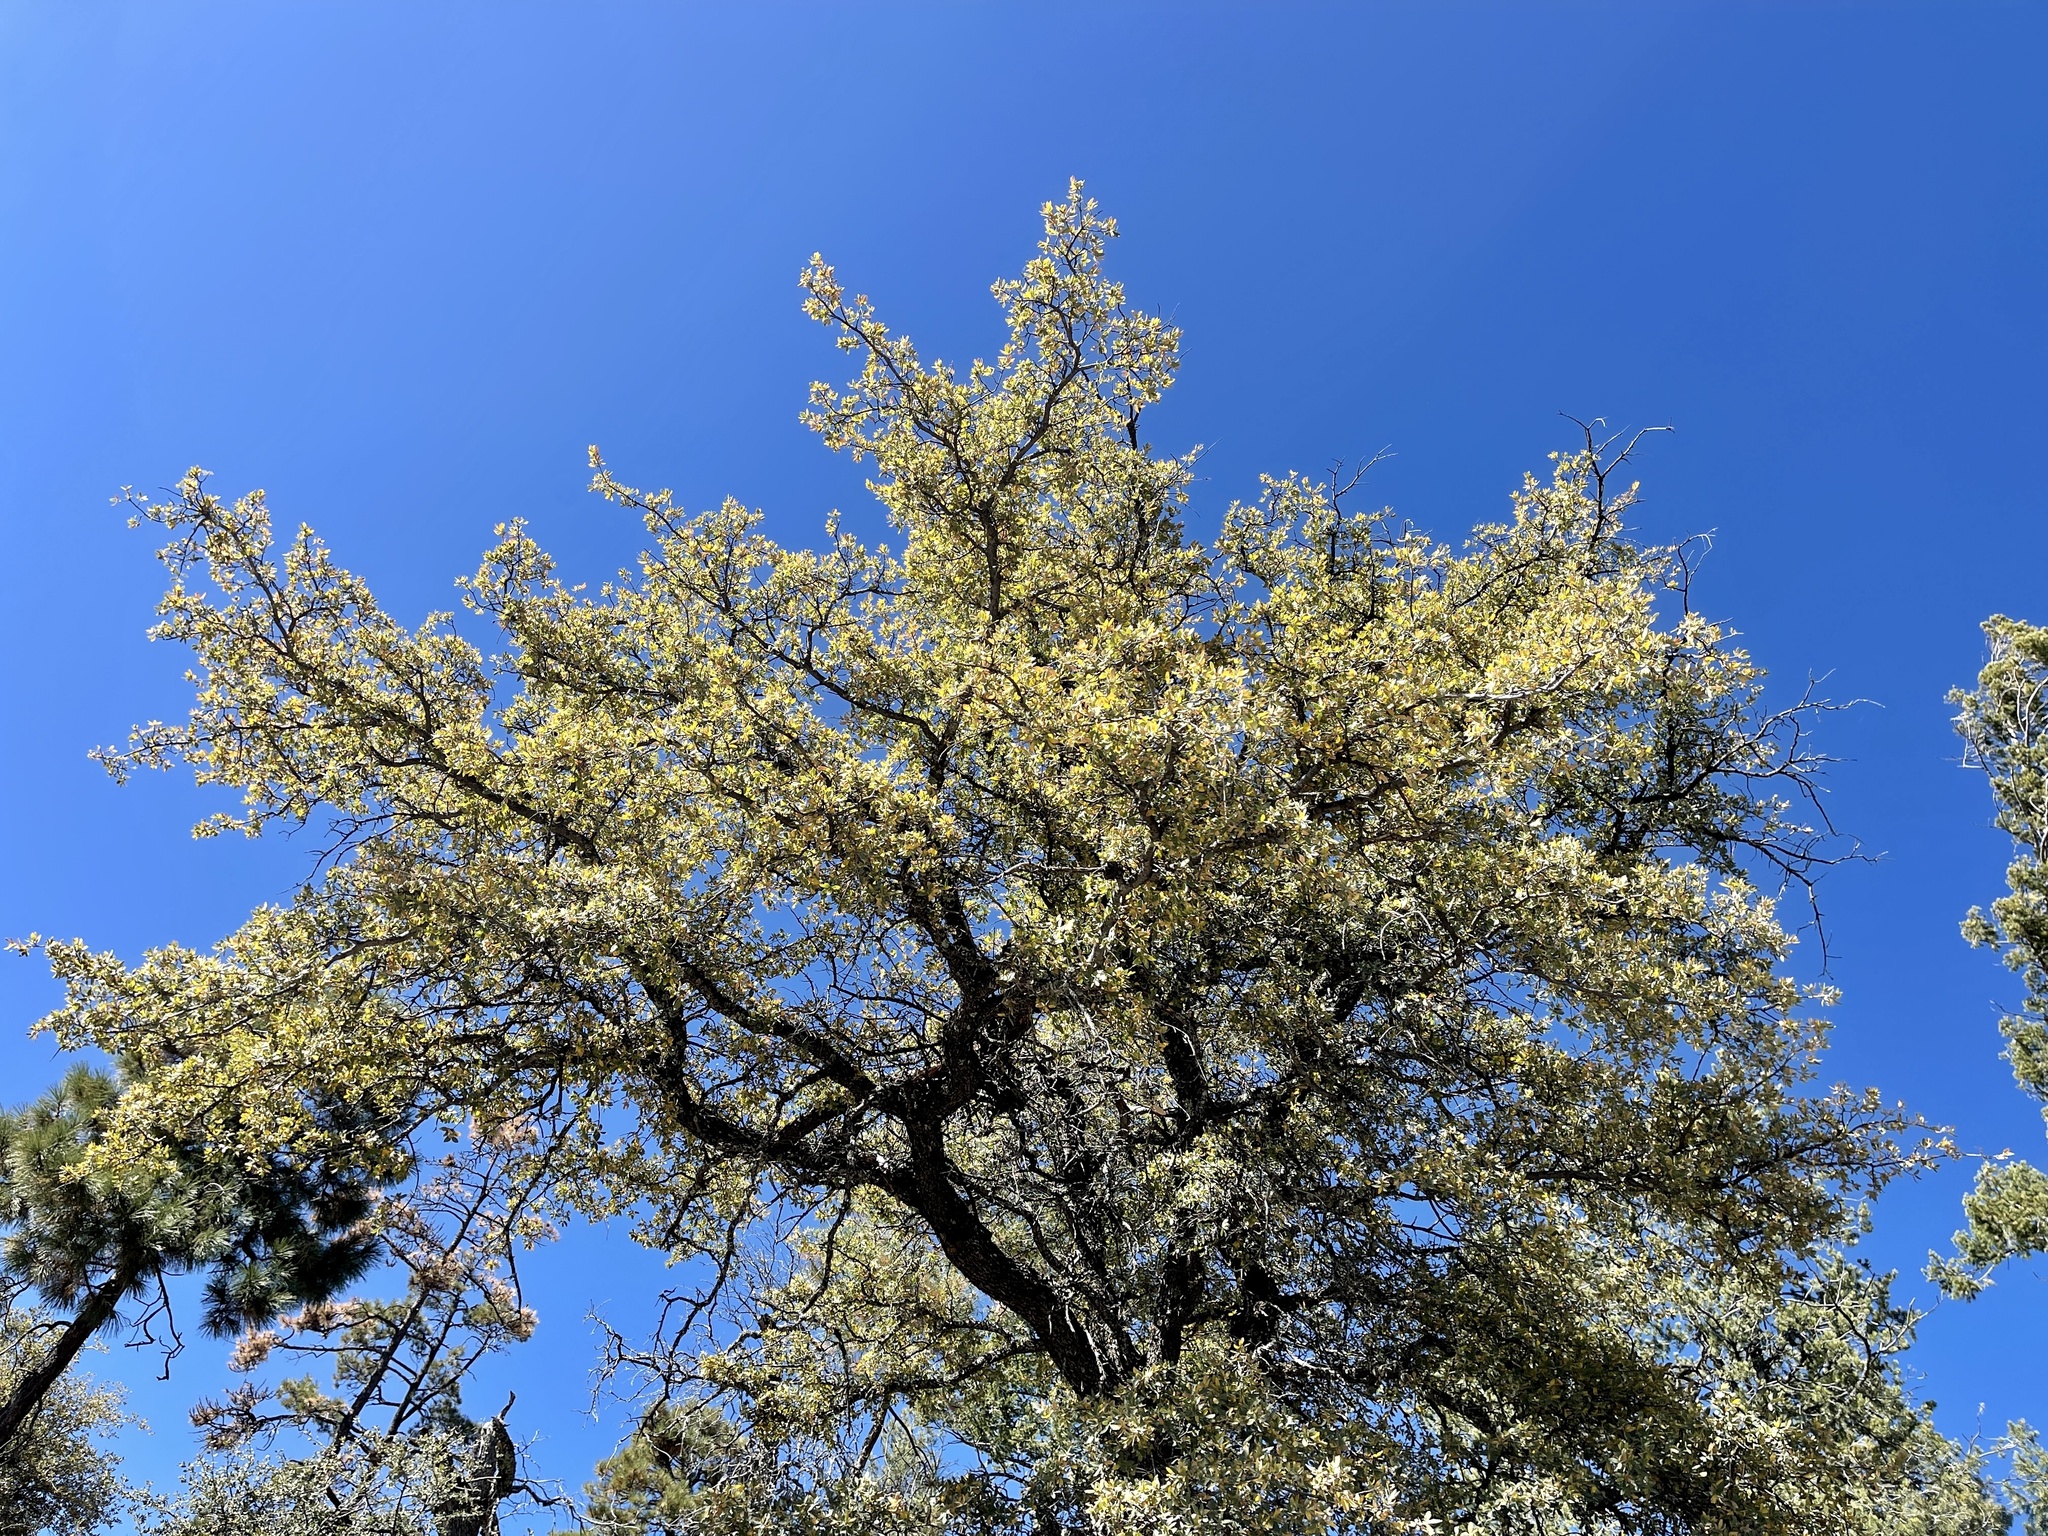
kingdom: Plantae
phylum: Tracheophyta
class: Magnoliopsida
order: Fagales
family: Fagaceae
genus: Quercus
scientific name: Quercus grisea
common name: Gray oak
